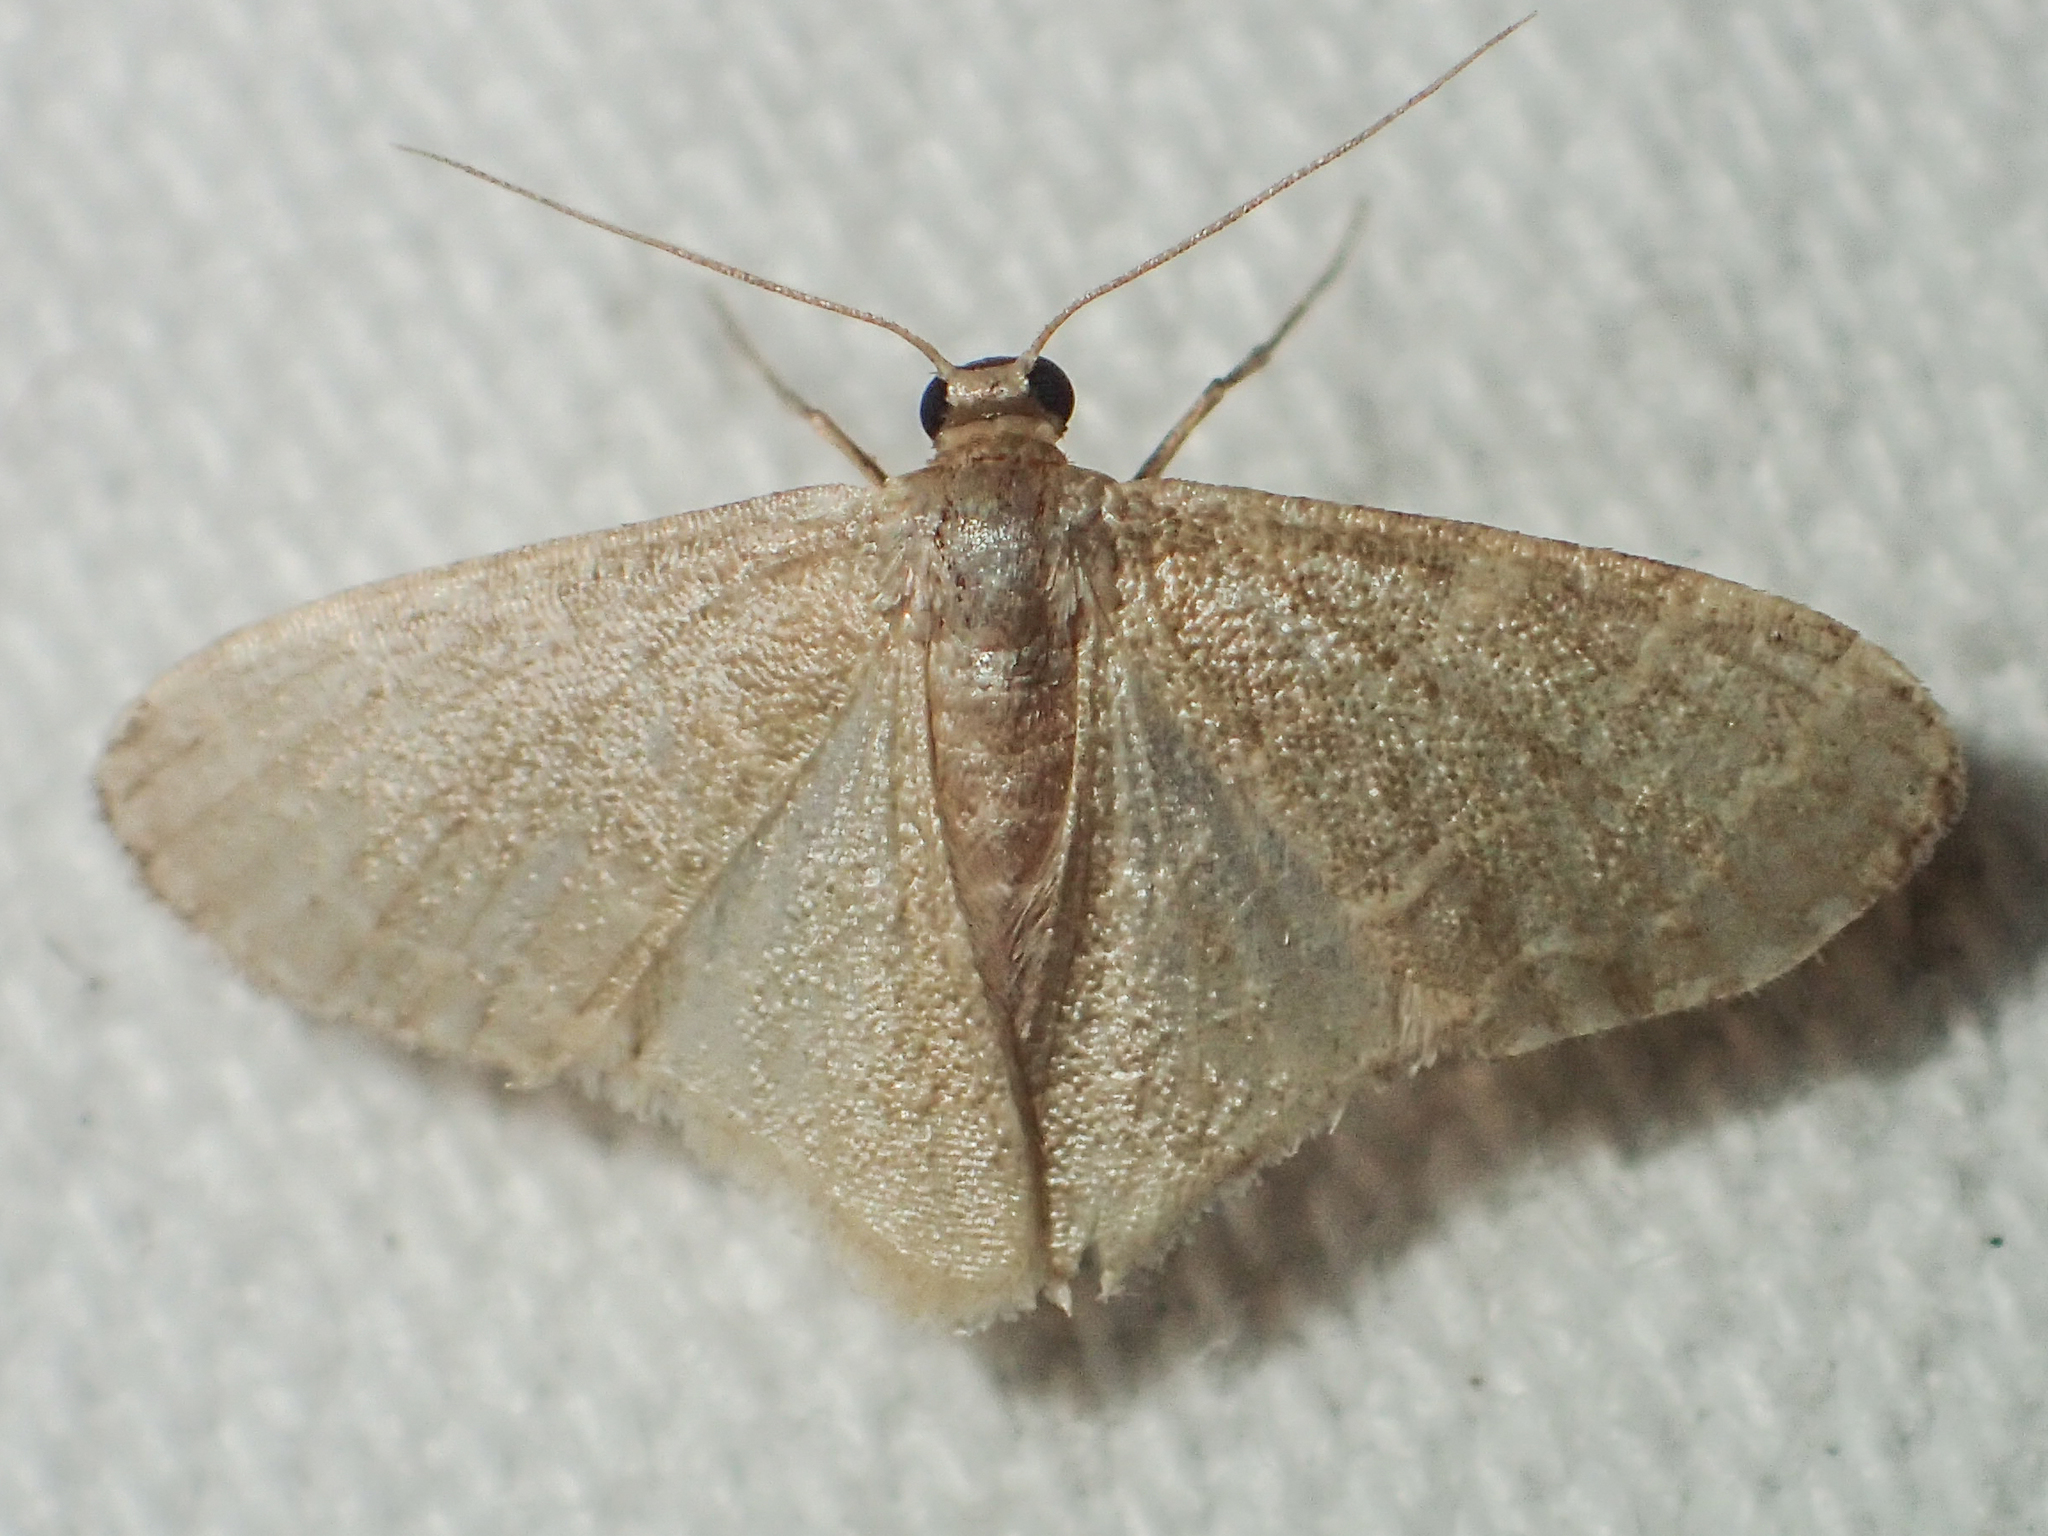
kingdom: Animalia
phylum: Arthropoda
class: Insecta
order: Lepidoptera
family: Geometridae
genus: Lophophleps
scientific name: Lophophleps triangularis
